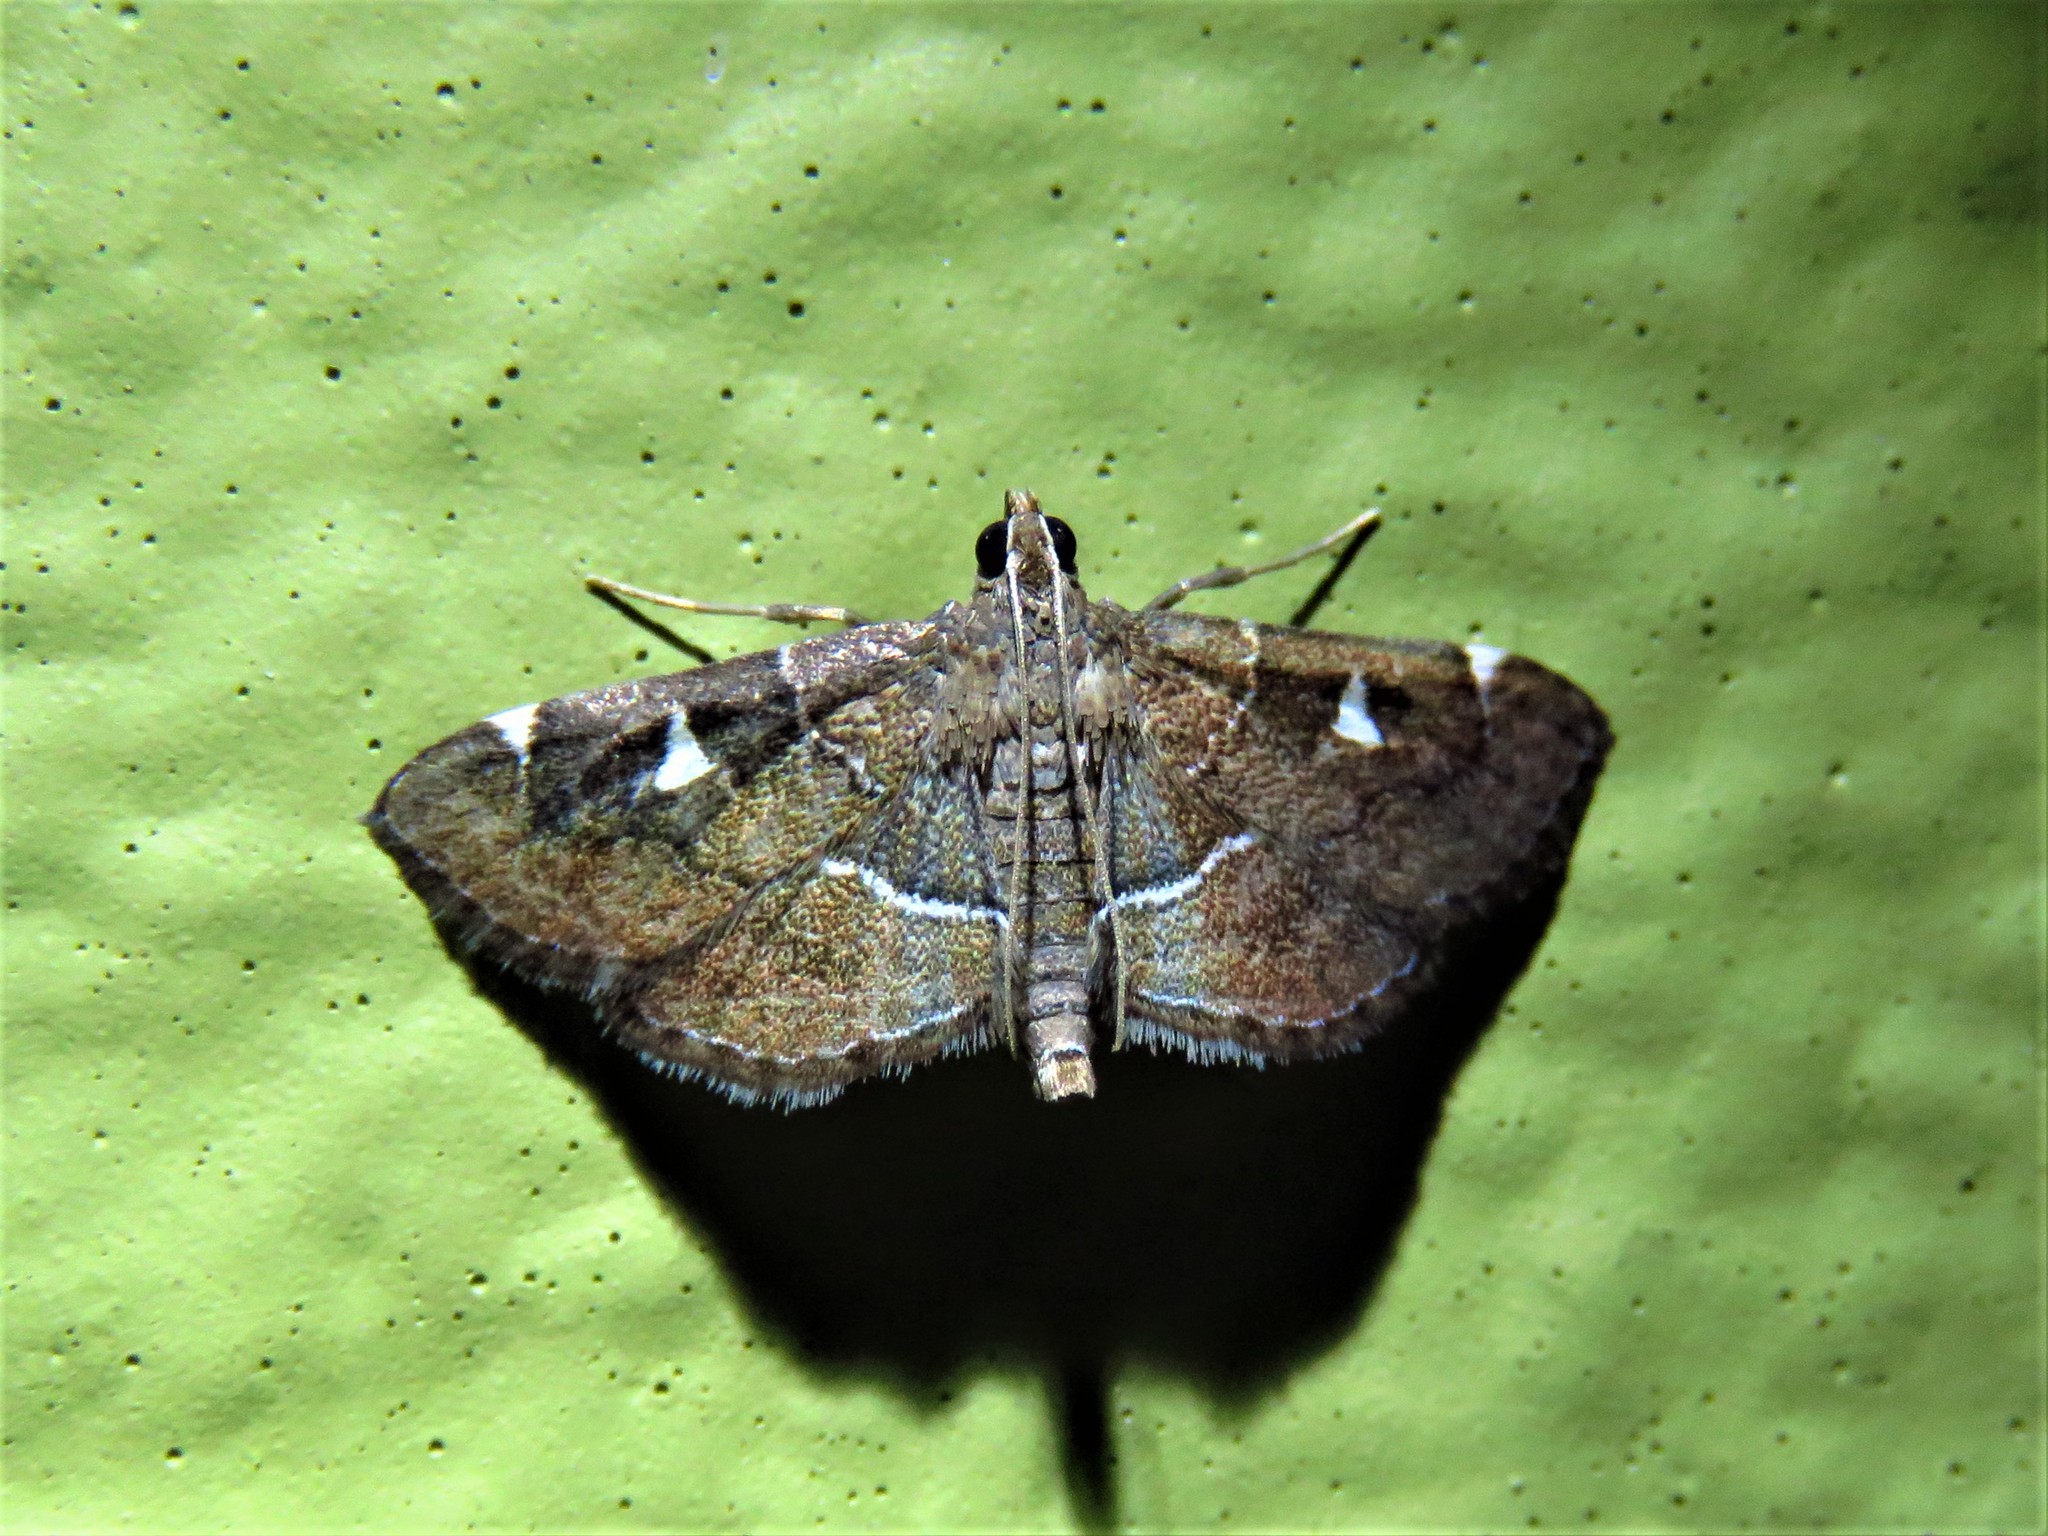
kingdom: Animalia
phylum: Arthropoda
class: Insecta
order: Lepidoptera
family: Crambidae
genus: Lamprosema
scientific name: Lamprosema victoriae
